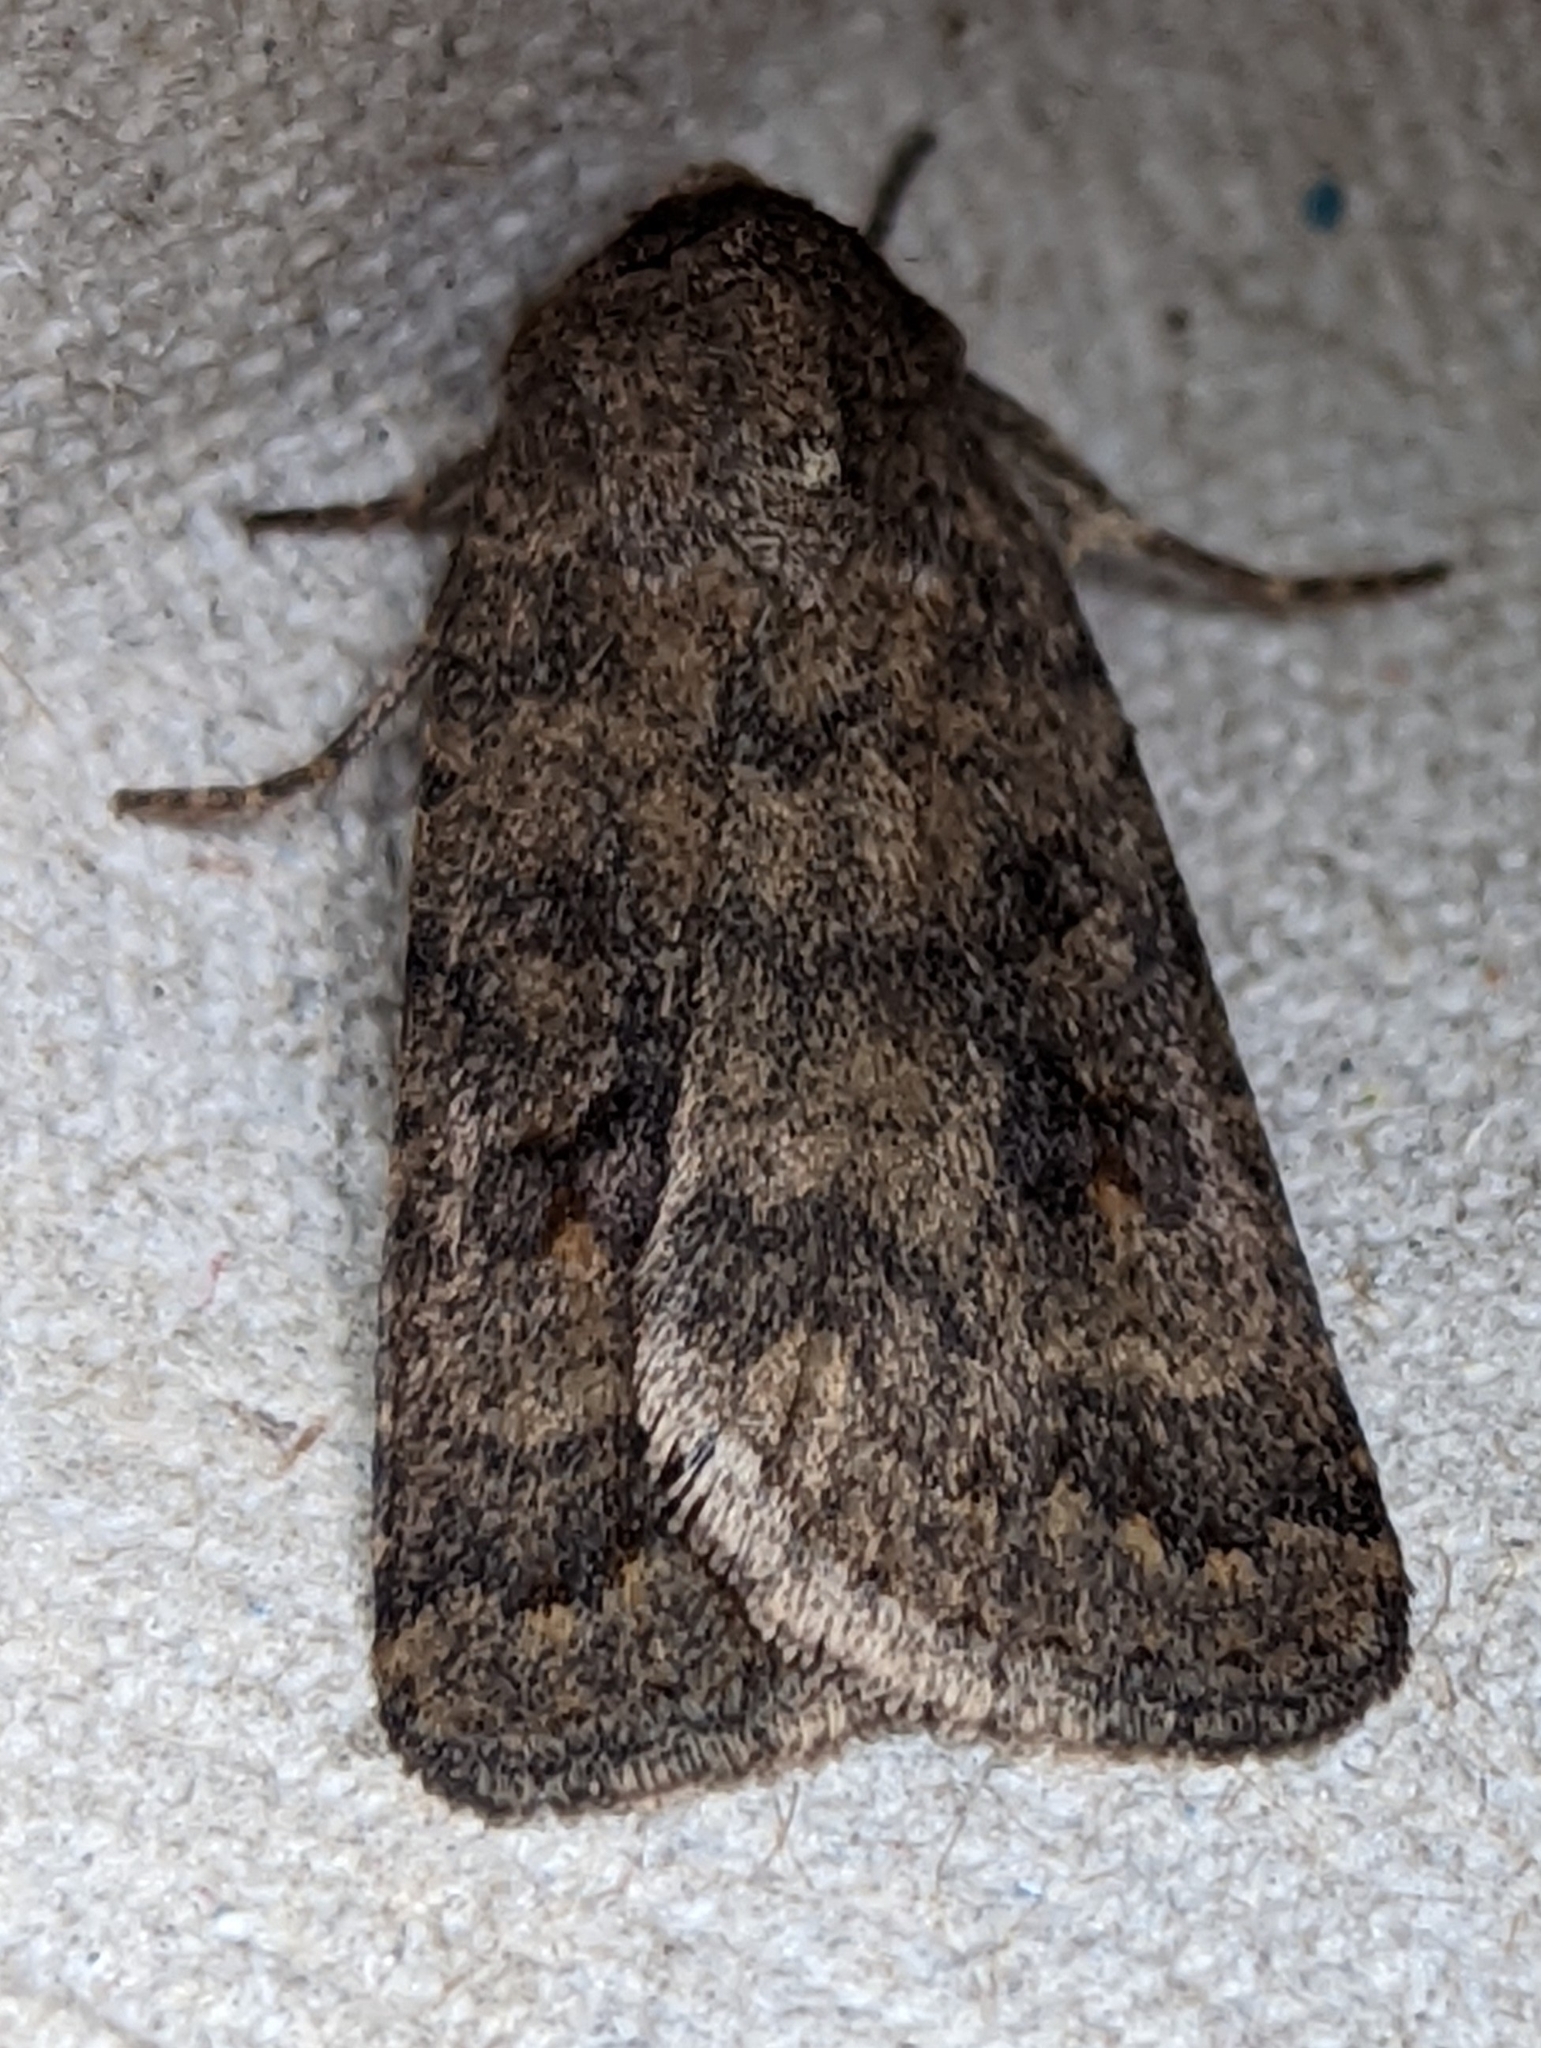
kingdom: Animalia
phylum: Arthropoda
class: Insecta
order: Lepidoptera
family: Noctuidae
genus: Caradrina
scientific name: Caradrina morpheus
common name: Mottled rustic
